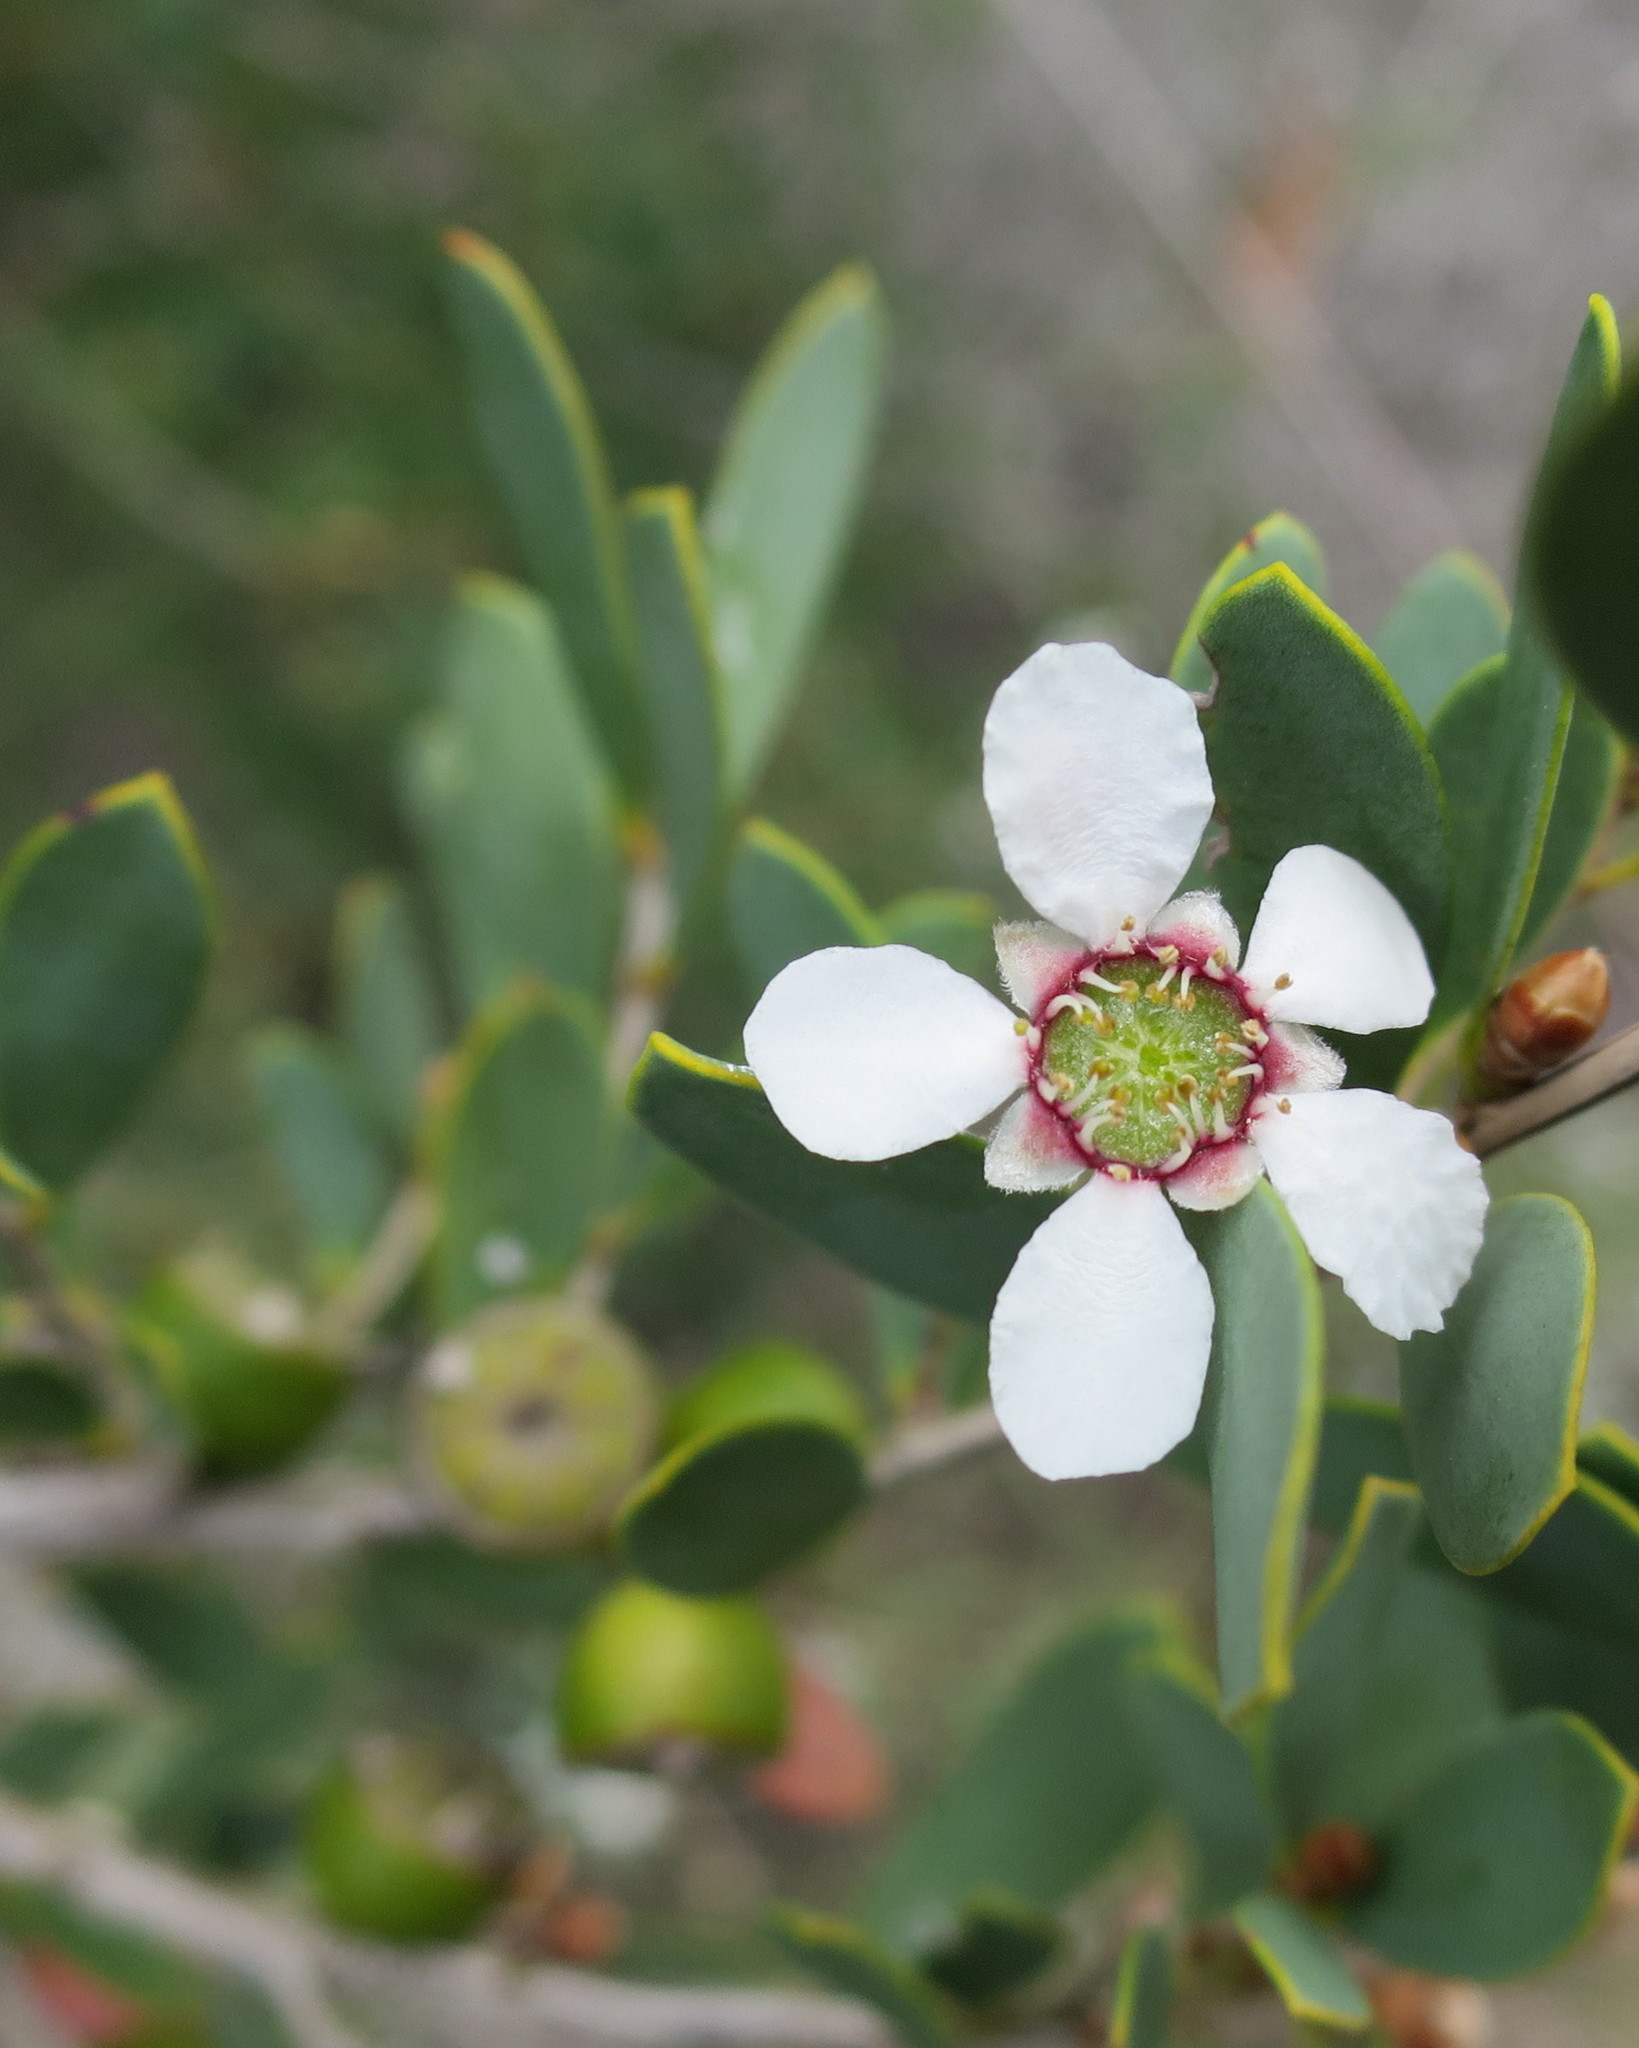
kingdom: Plantae
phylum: Tracheophyta
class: Magnoliopsida
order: Myrtales
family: Myrtaceae
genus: Leptospermum
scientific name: Leptospermum laevigatum
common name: Australian teatree
